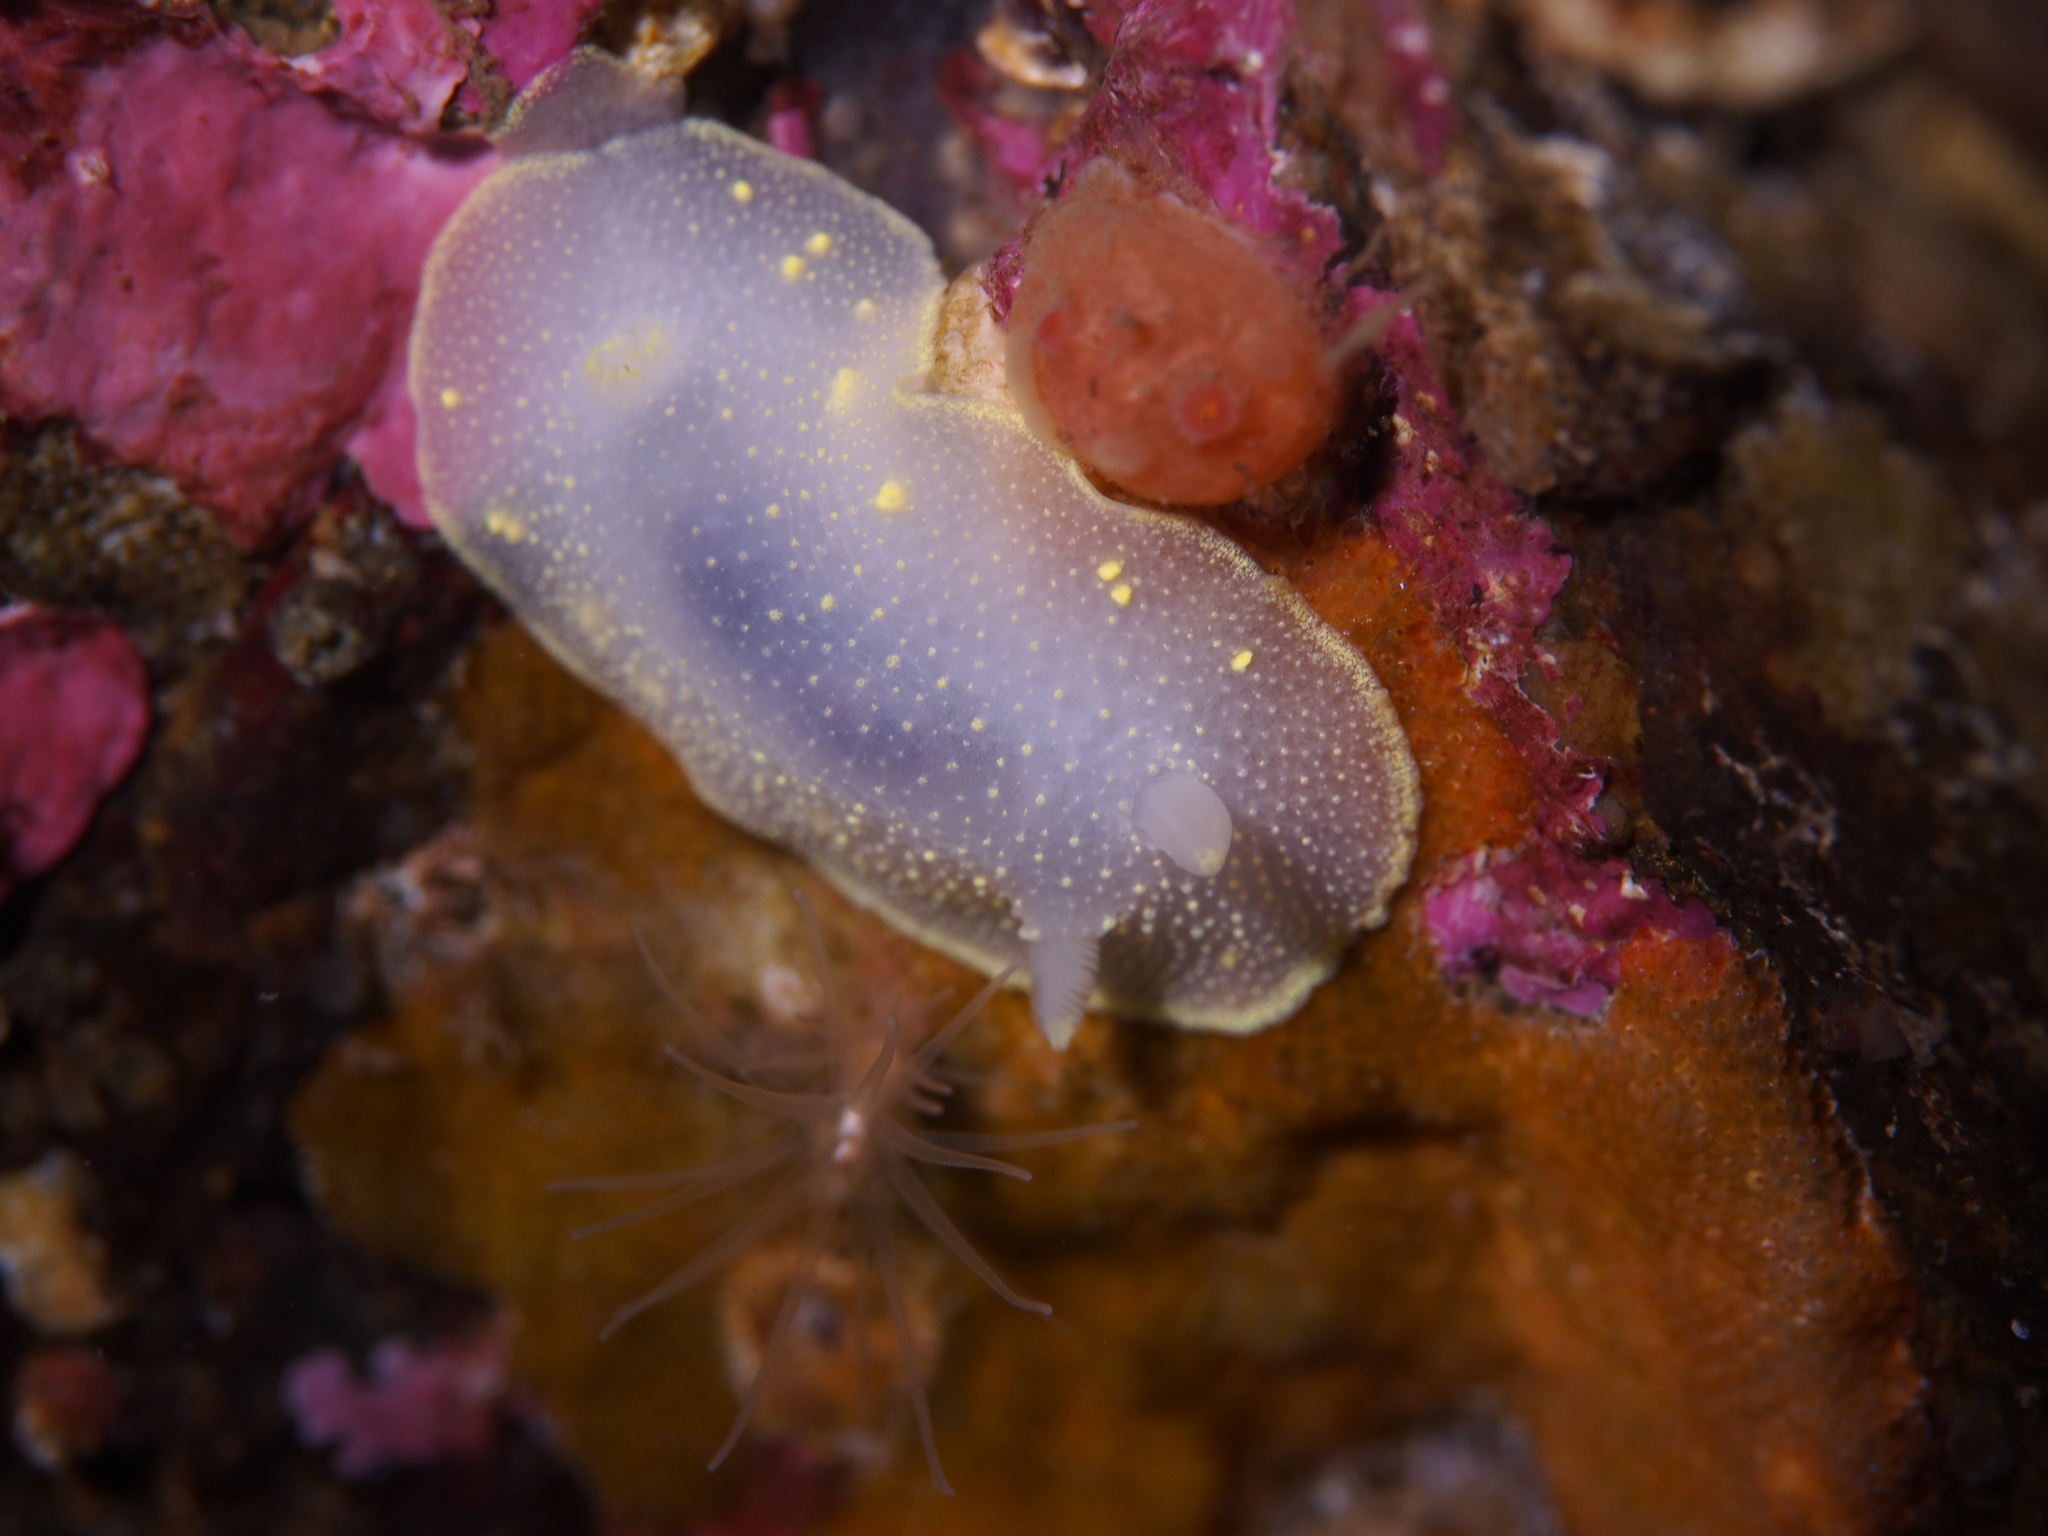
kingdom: Animalia
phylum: Mollusca
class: Gastropoda
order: Nudibranchia
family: Cadlinidae
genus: Cadlina
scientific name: Cadlina laevis
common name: White atlantic cadlina
